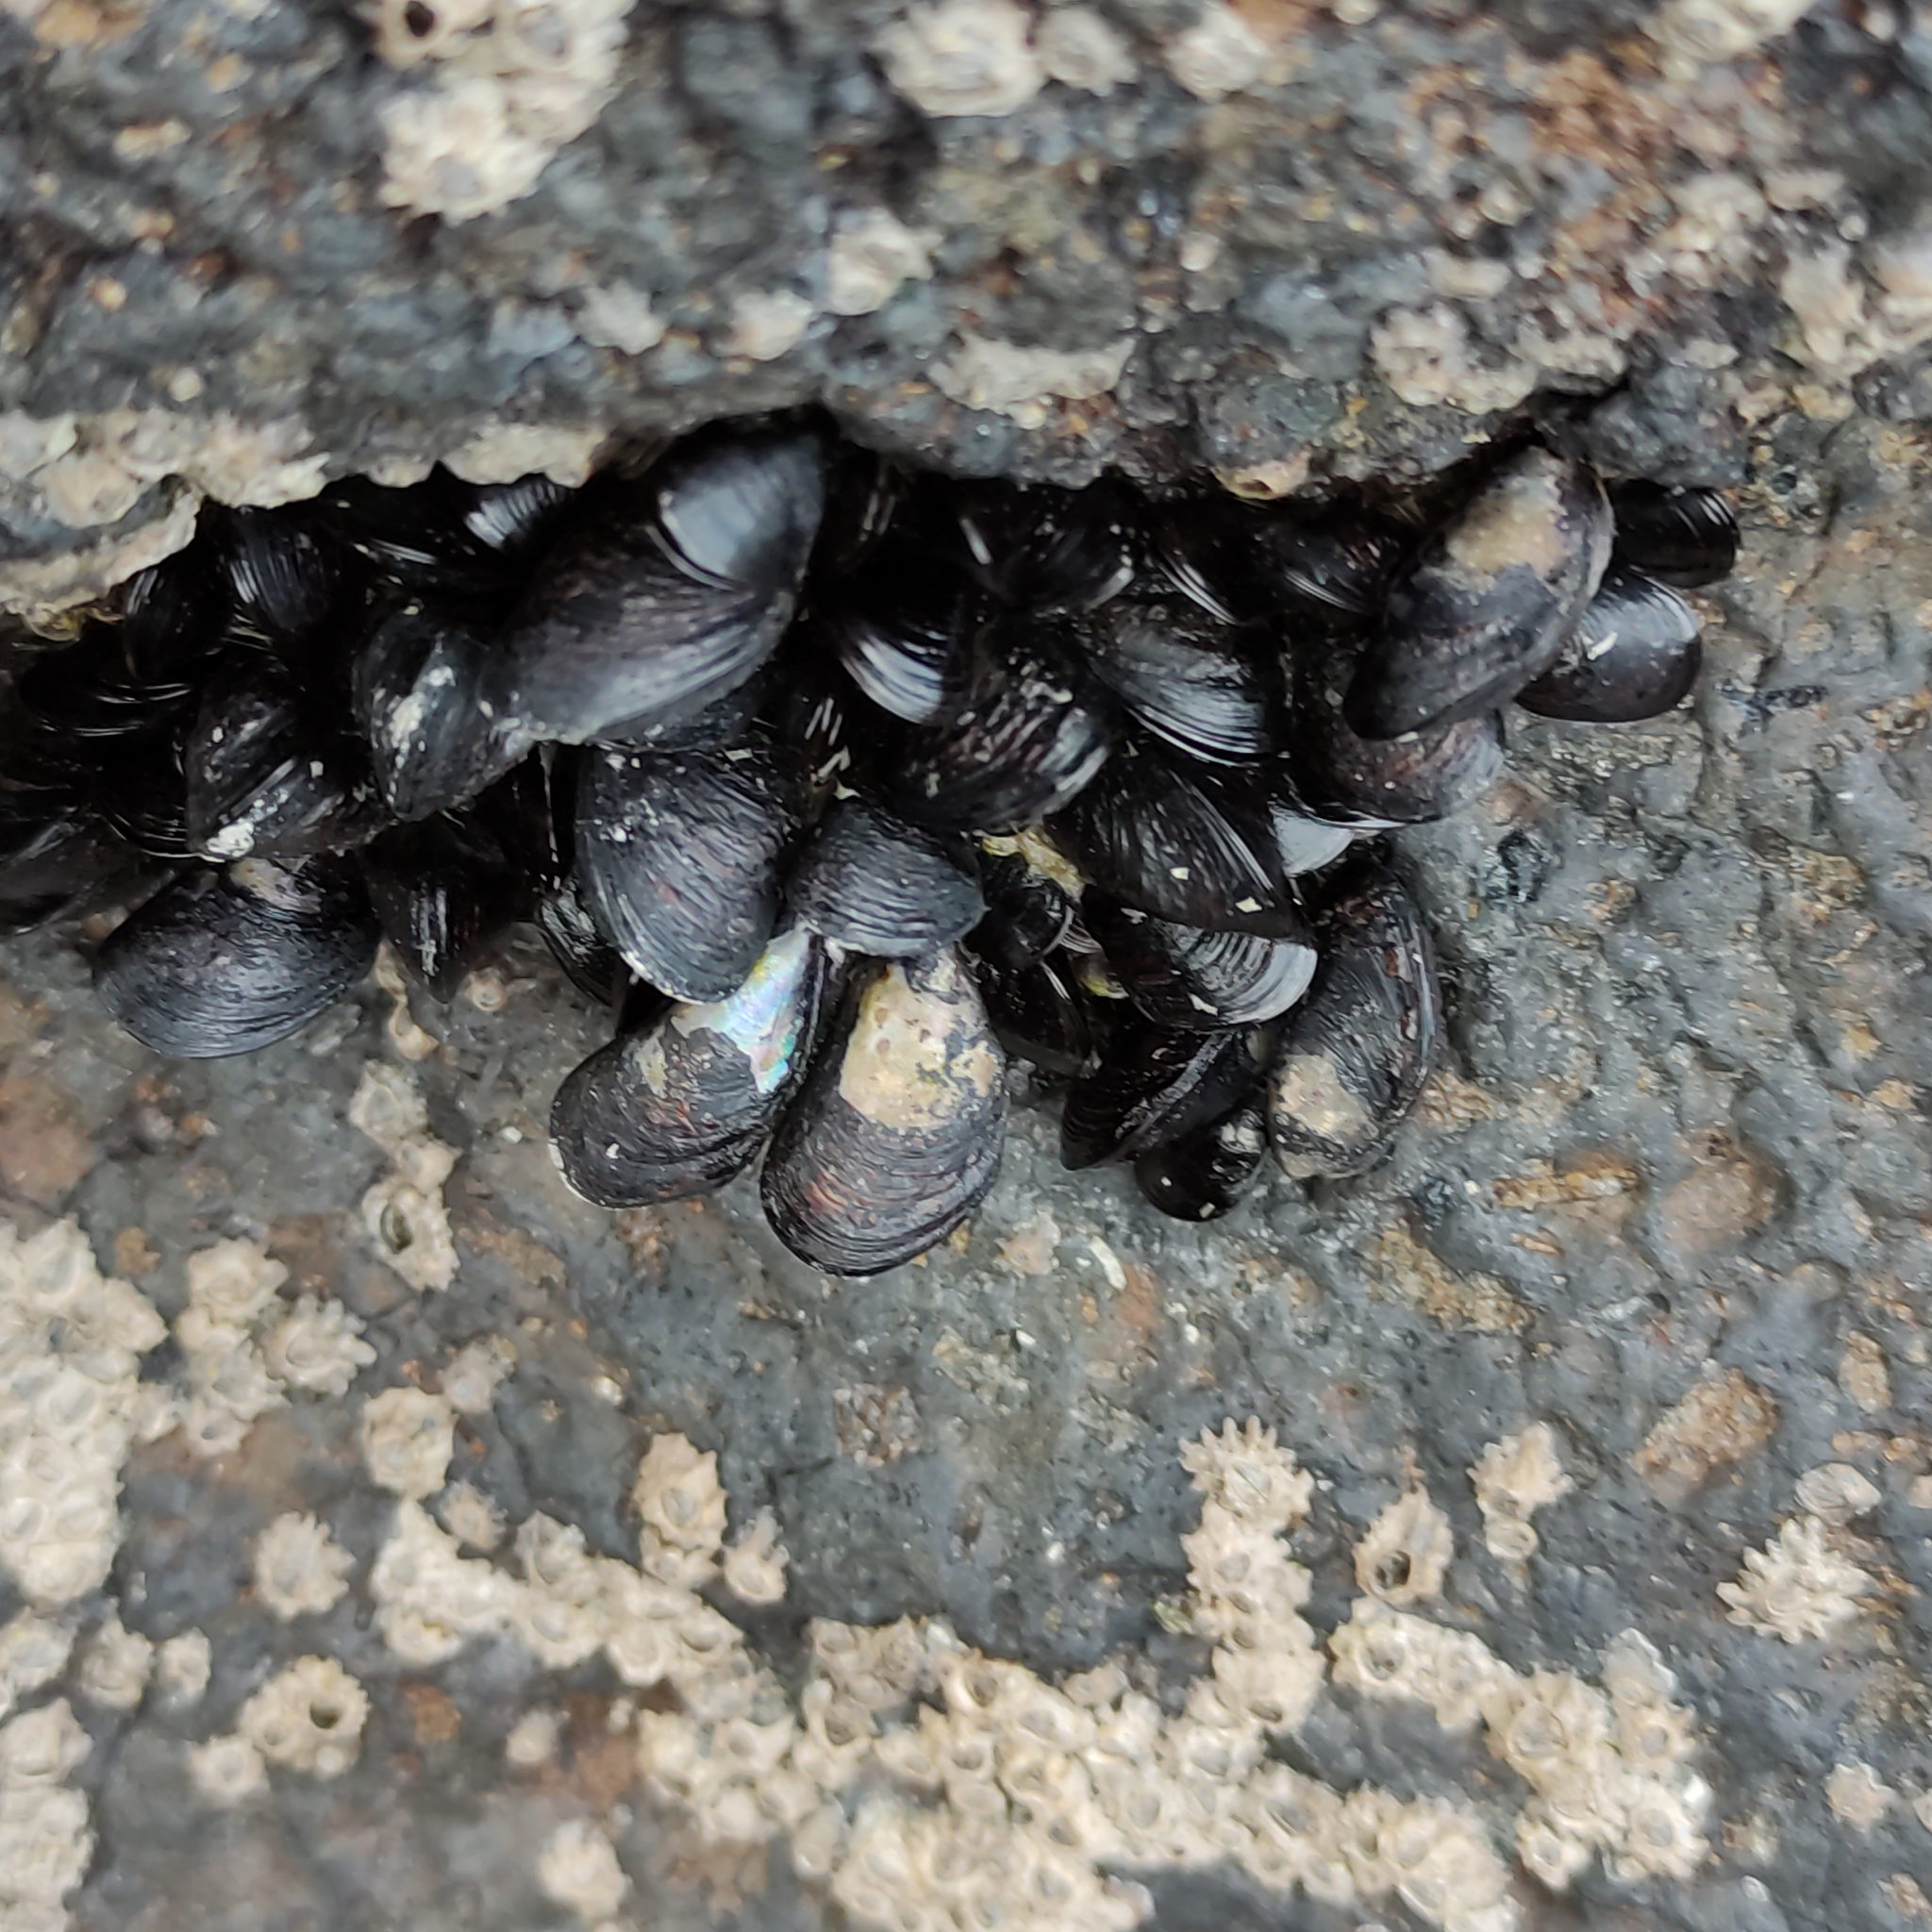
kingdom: Animalia
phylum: Mollusca
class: Bivalvia
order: Mytilida
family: Mytilidae
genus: Xenostrobus
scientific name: Xenostrobus neozelanicus
